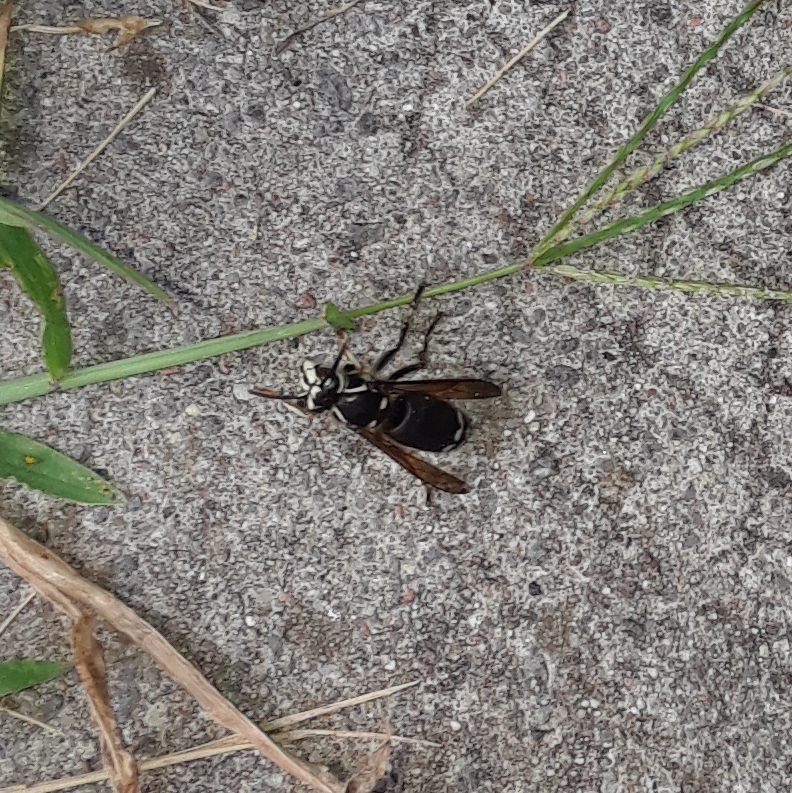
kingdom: Animalia
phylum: Arthropoda
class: Insecta
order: Hymenoptera
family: Vespidae
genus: Dolichovespula
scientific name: Dolichovespula maculata
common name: Bald-faced hornet
